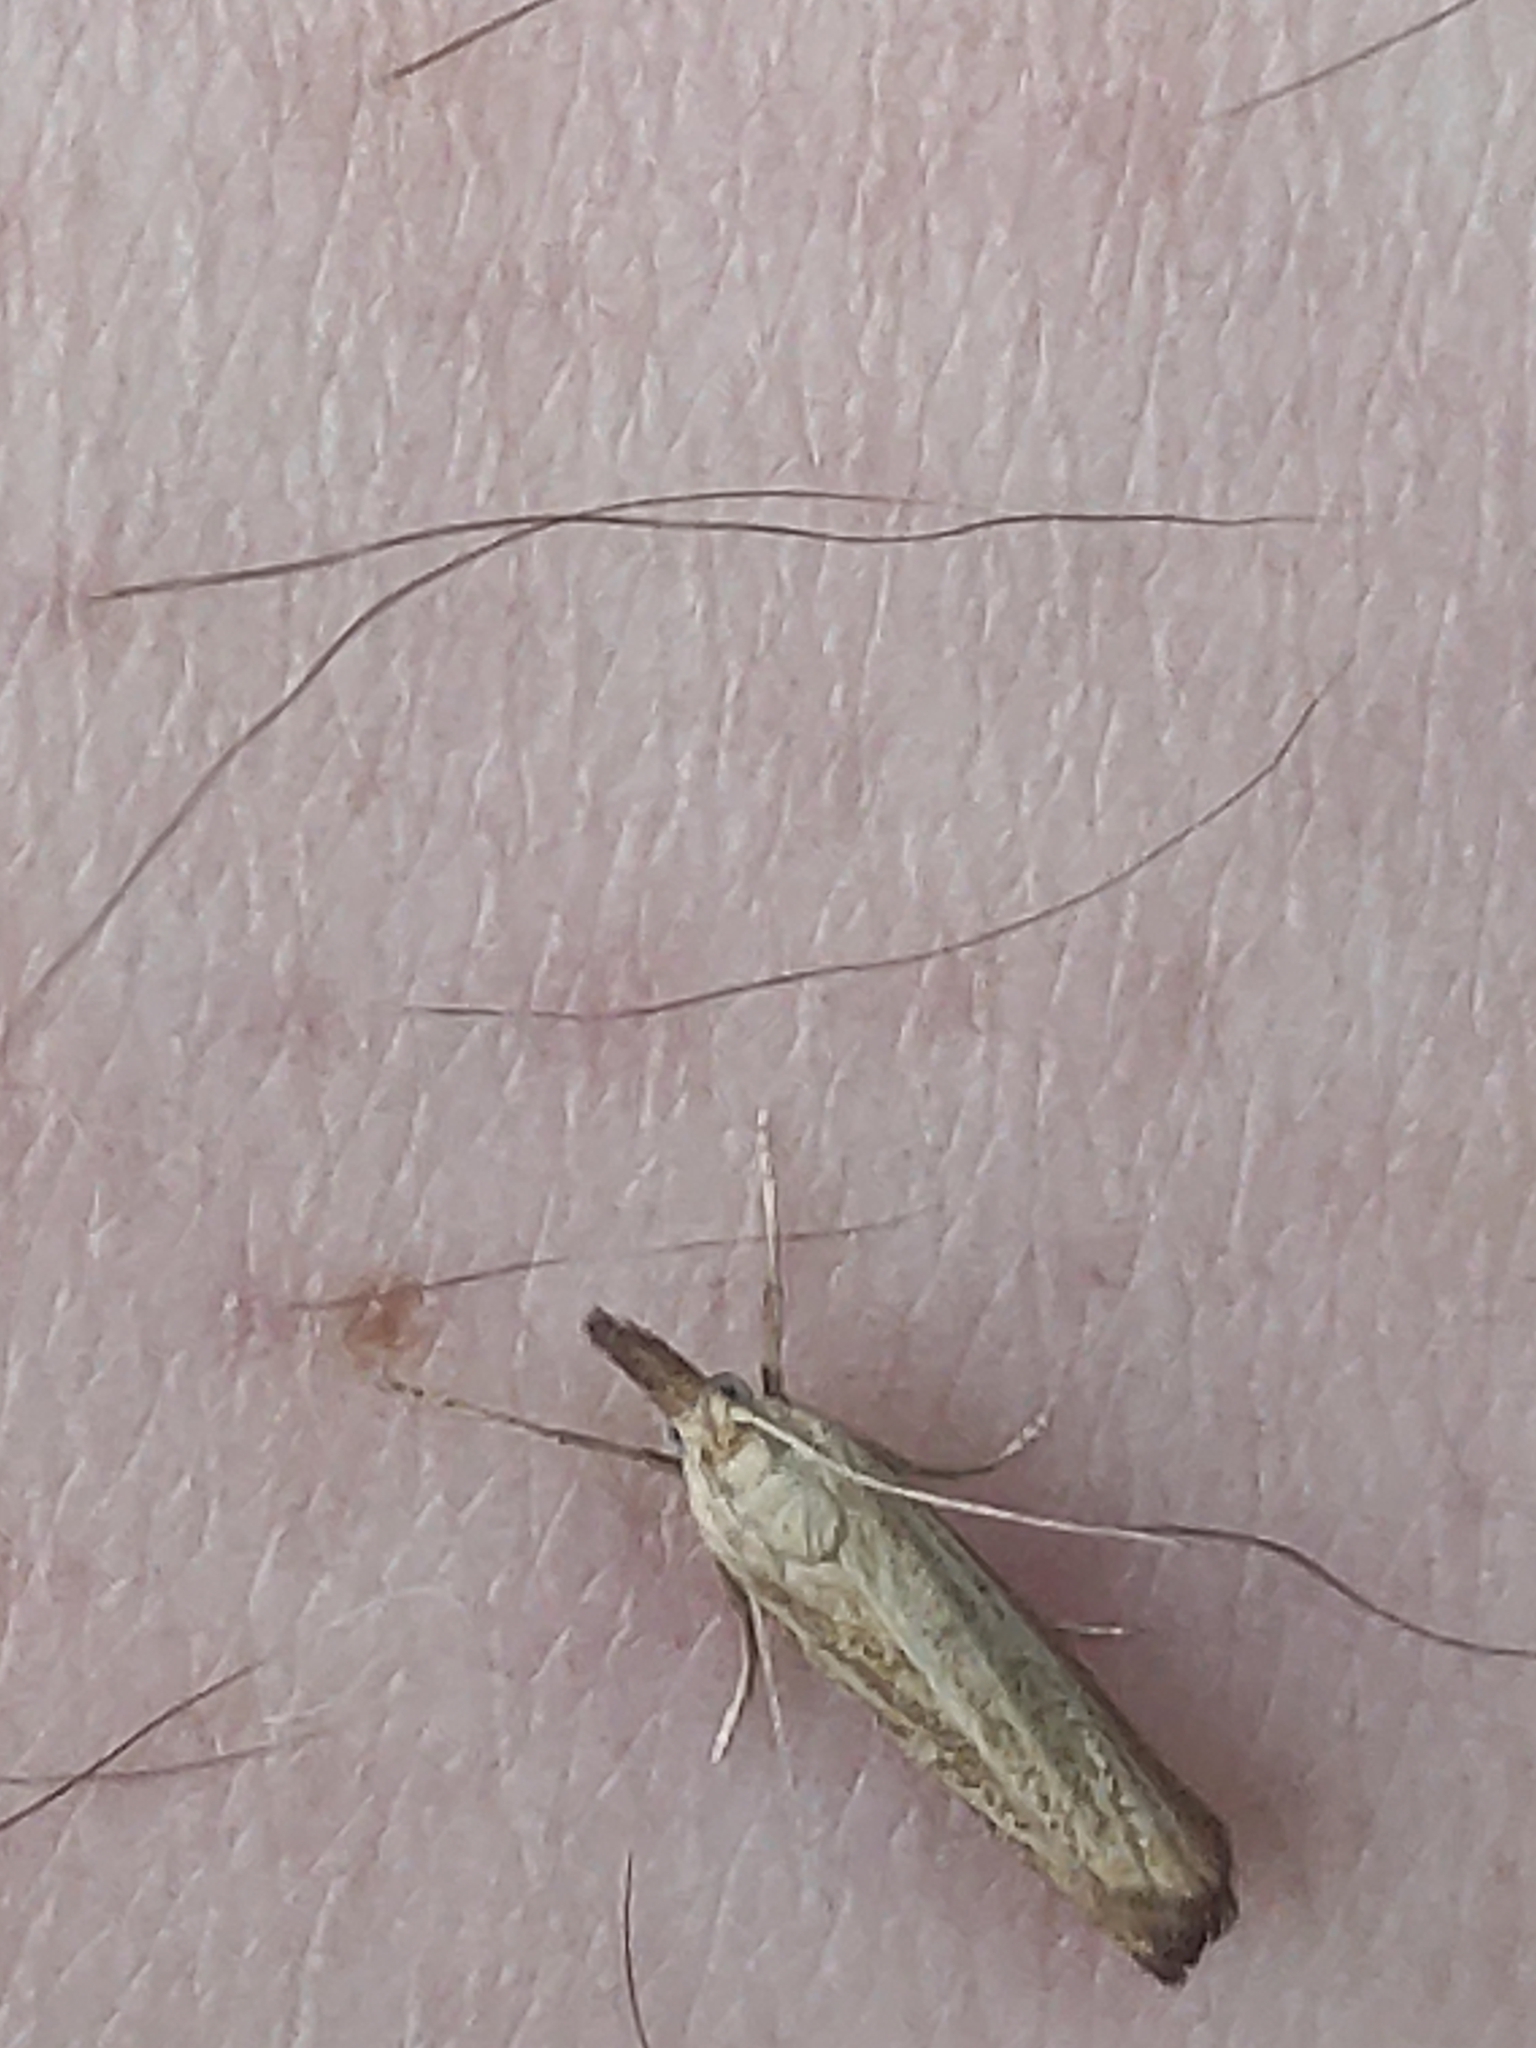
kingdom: Animalia
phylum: Arthropoda
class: Insecta
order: Lepidoptera
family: Crambidae
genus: Agriphila
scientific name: Agriphila straminella
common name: Straw grass-veneer
